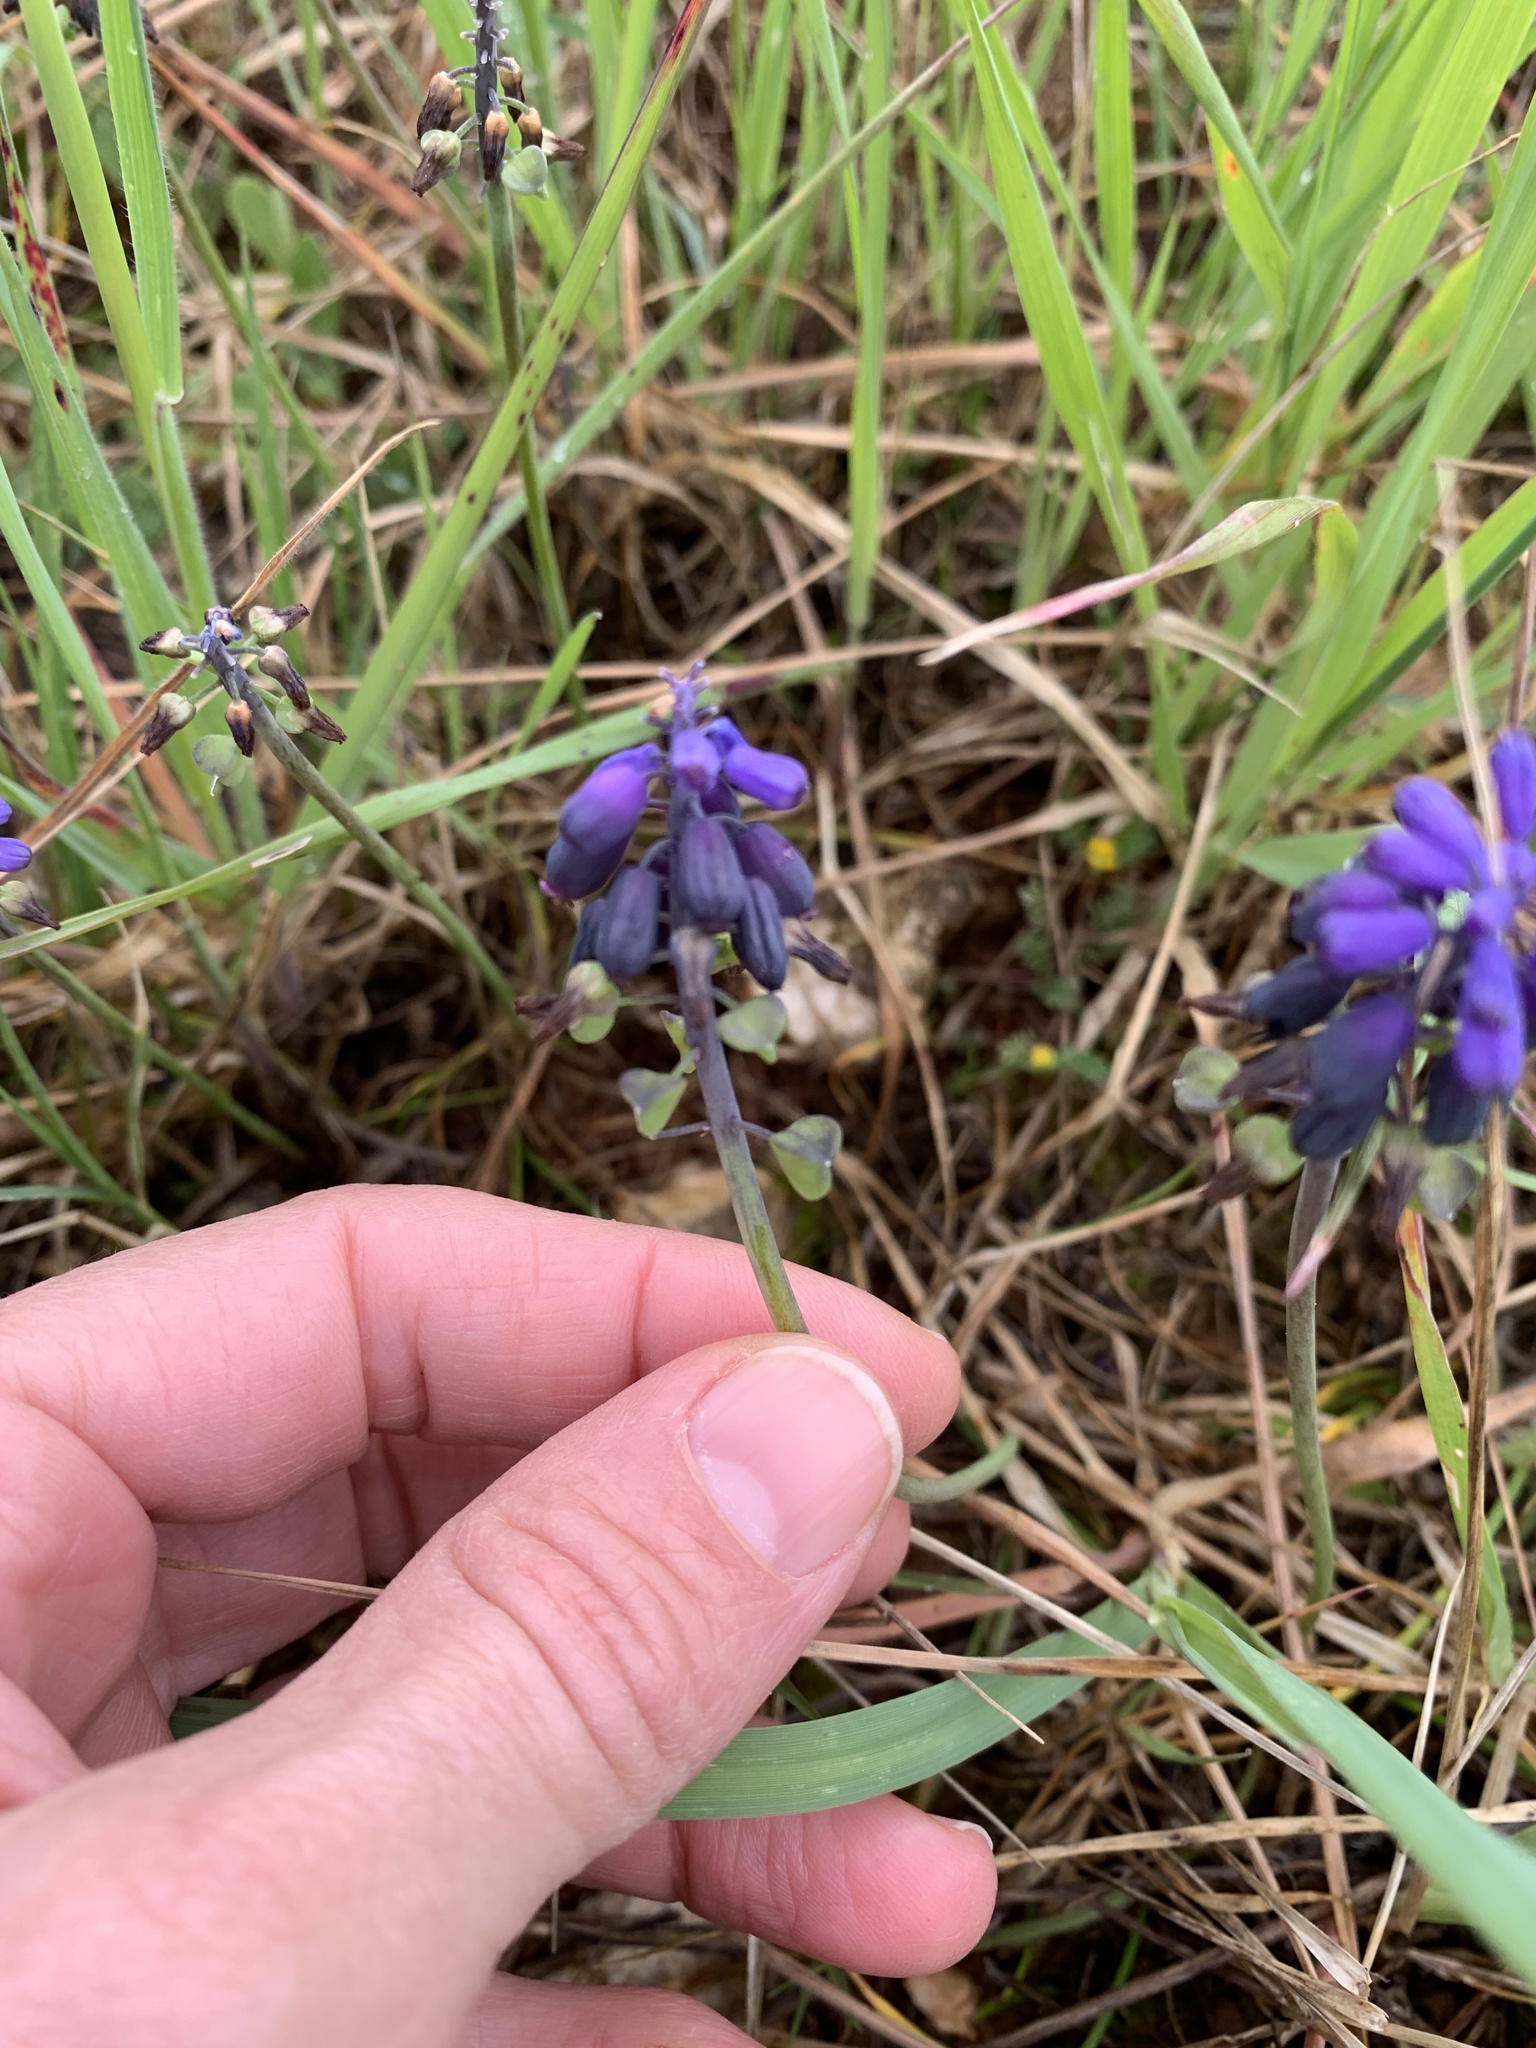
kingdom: Plantae
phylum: Tracheophyta
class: Liliopsida
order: Asparagales
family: Asparagaceae
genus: Muscari
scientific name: Muscari neglectum
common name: Grape-hyacinth
